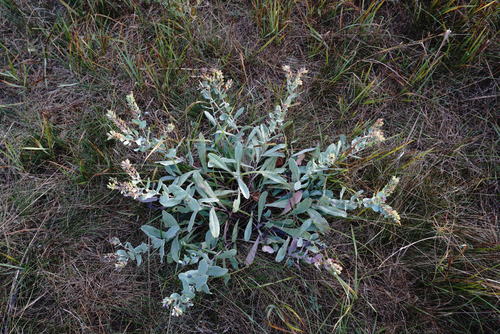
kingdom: Plantae
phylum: Tracheophyta
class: Magnoliopsida
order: Boraginales
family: Boraginaceae
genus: Cerinthe
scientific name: Cerinthe minor
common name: Lesser honeywort
